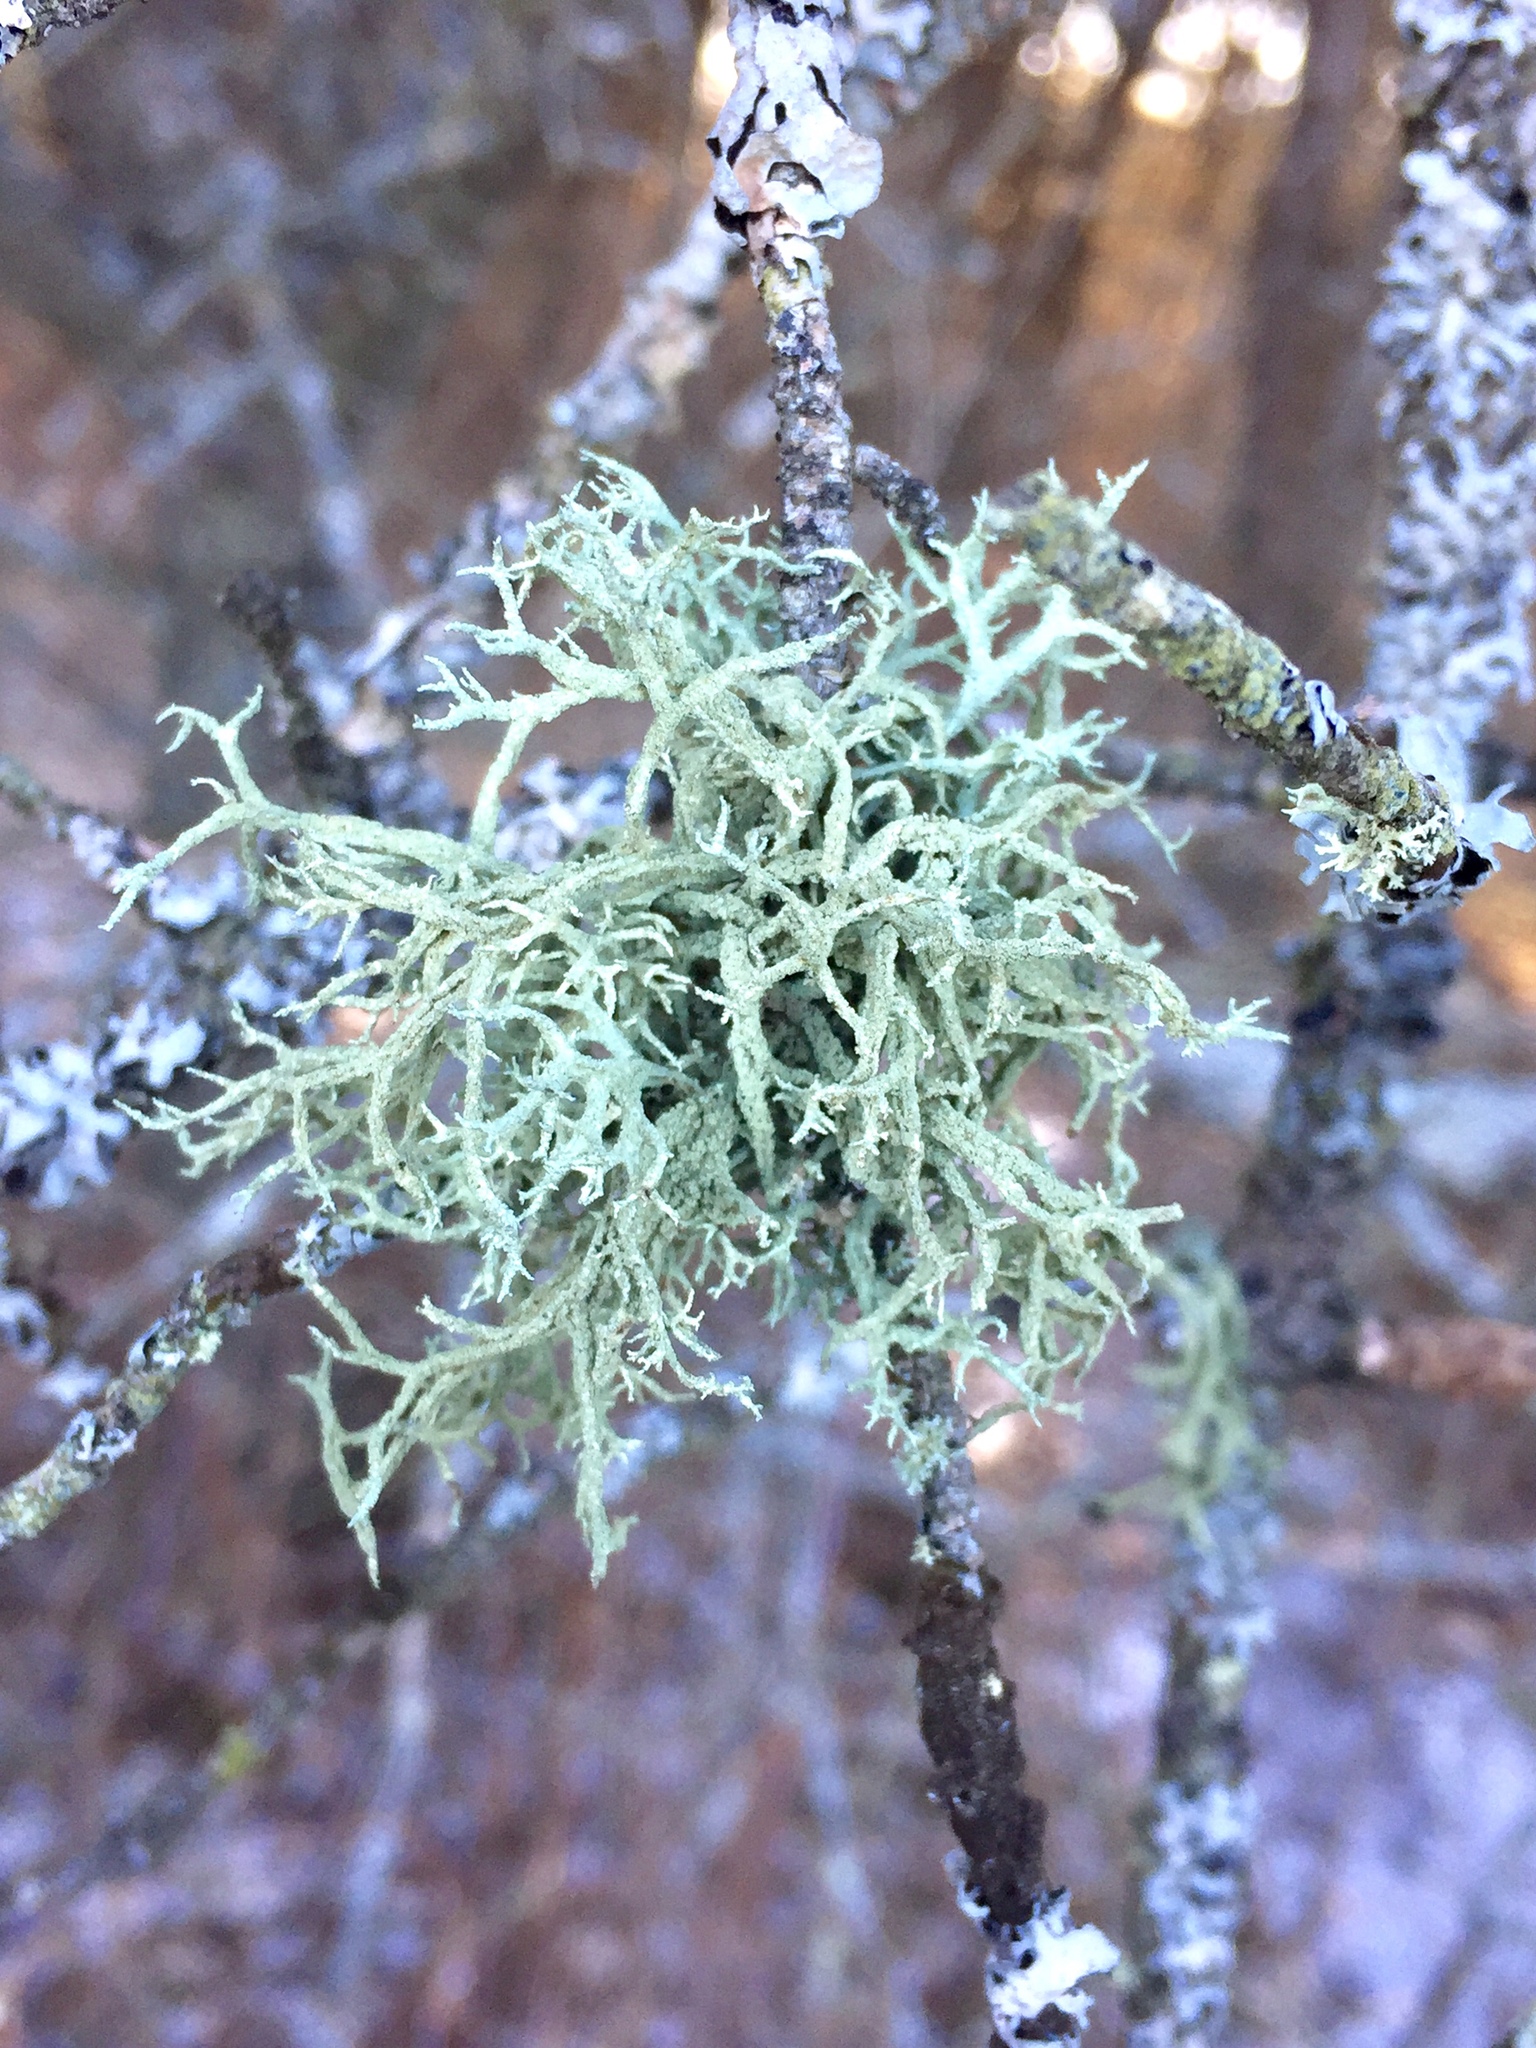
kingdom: Fungi
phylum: Ascomycota
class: Lecanoromycetes
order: Lecanorales
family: Parmeliaceae
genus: Evernia
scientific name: Evernia mesomorpha
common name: Boreal oak moss lichen
